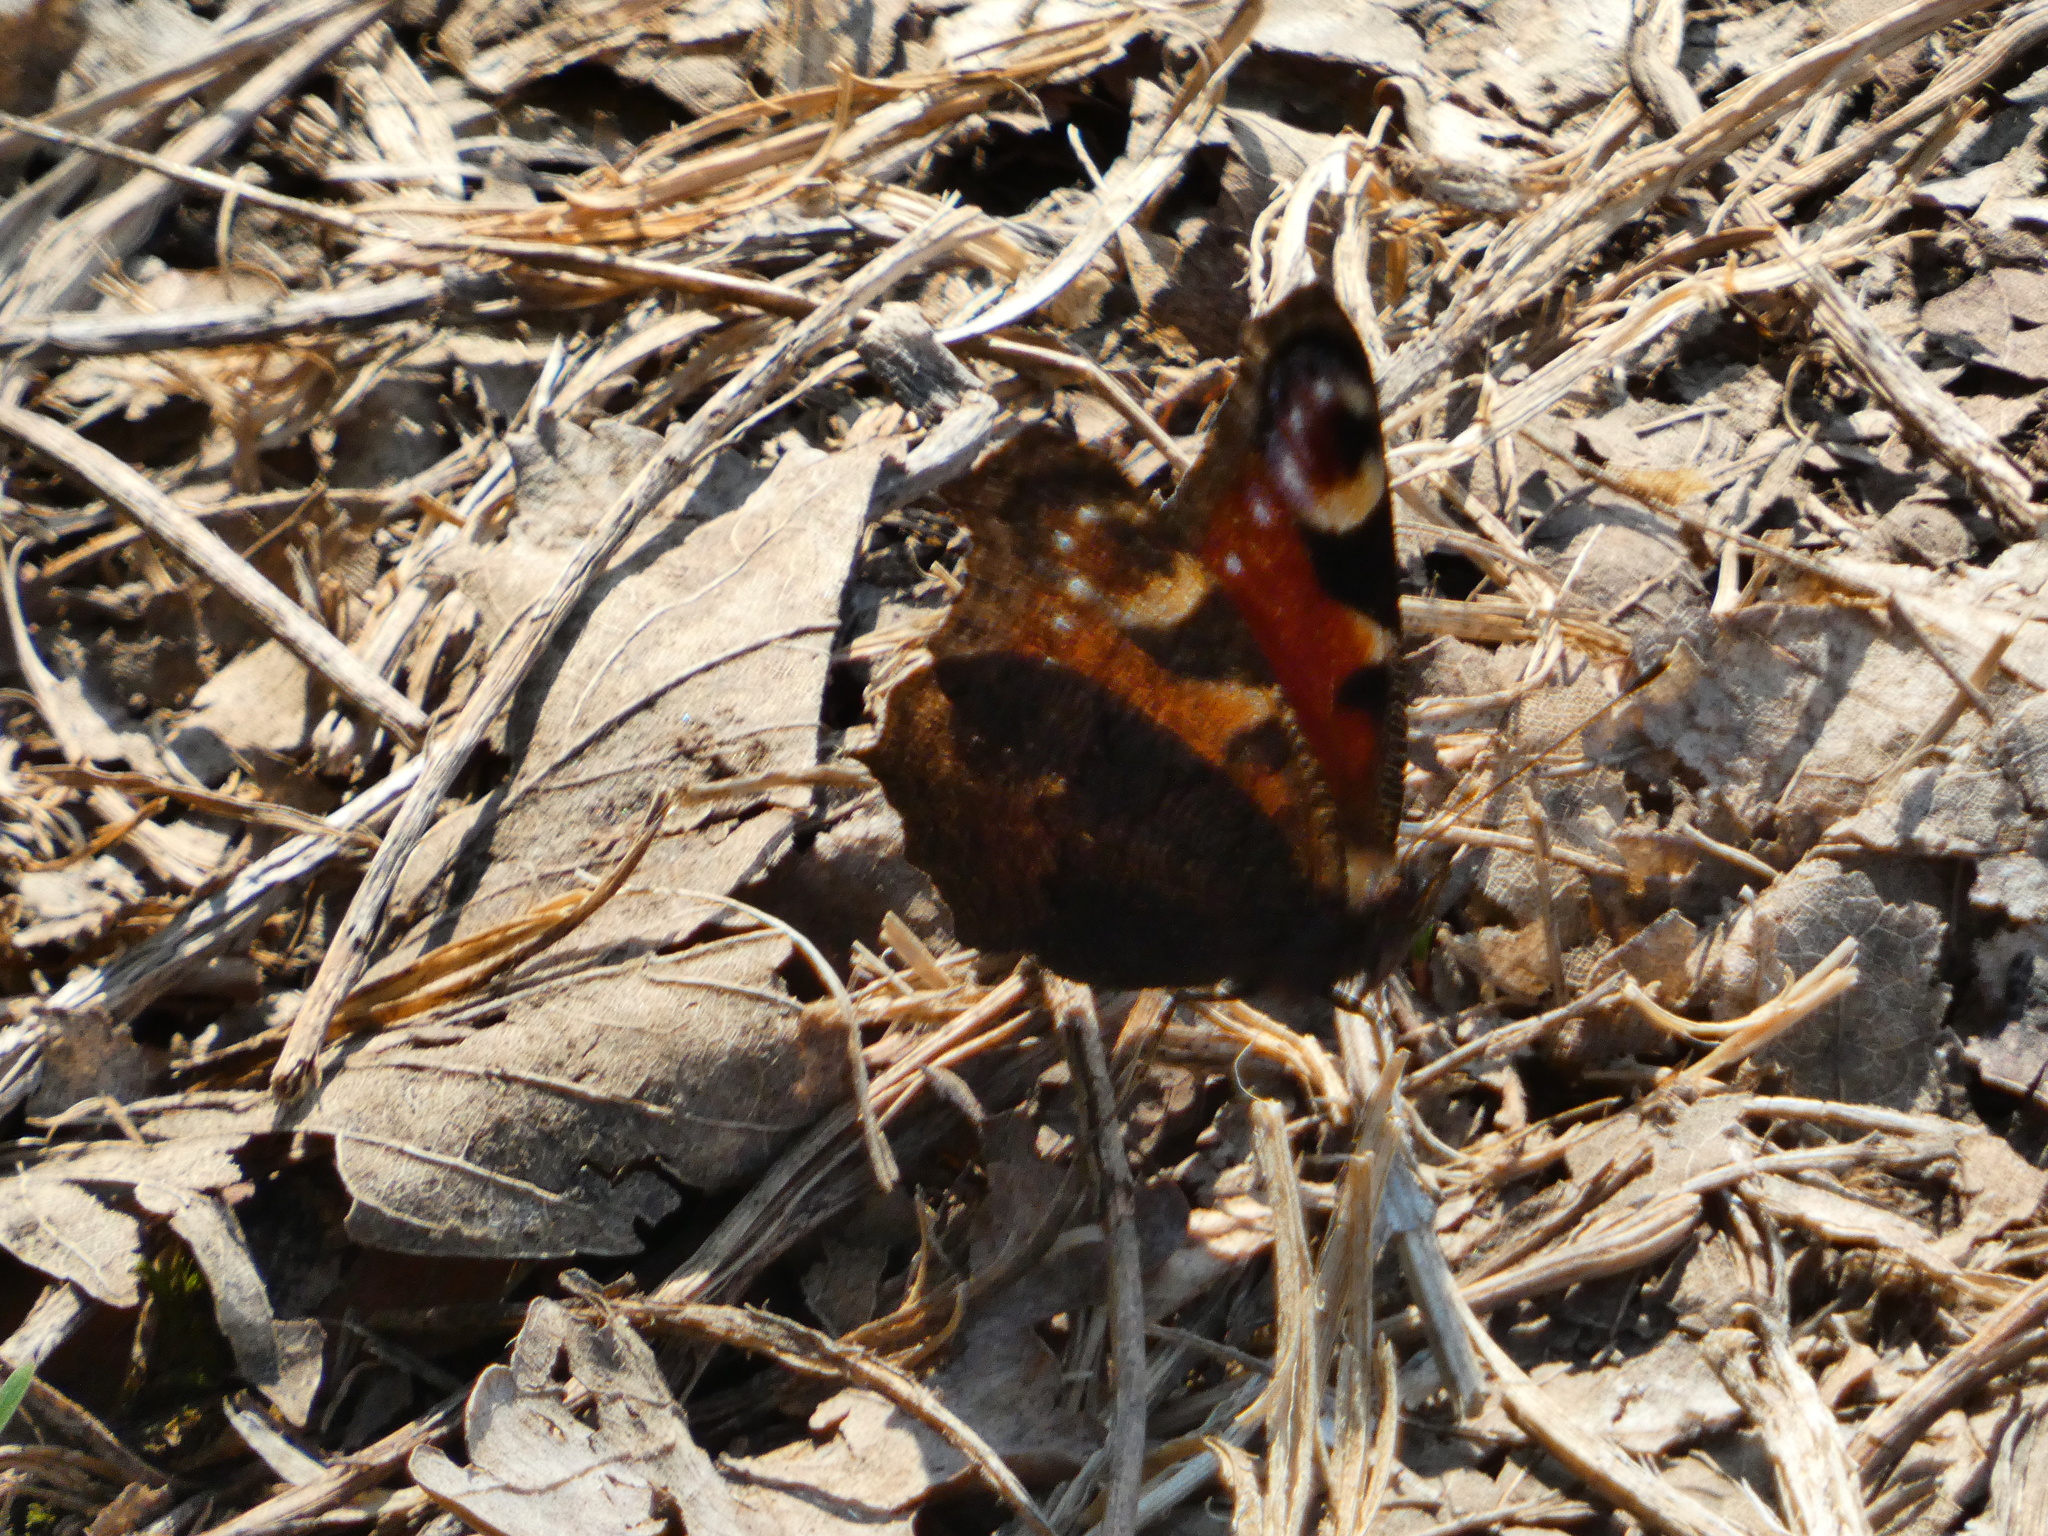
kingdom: Animalia
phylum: Arthropoda
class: Insecta
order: Lepidoptera
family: Nymphalidae
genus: Aglais
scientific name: Aglais io
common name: Peacock
